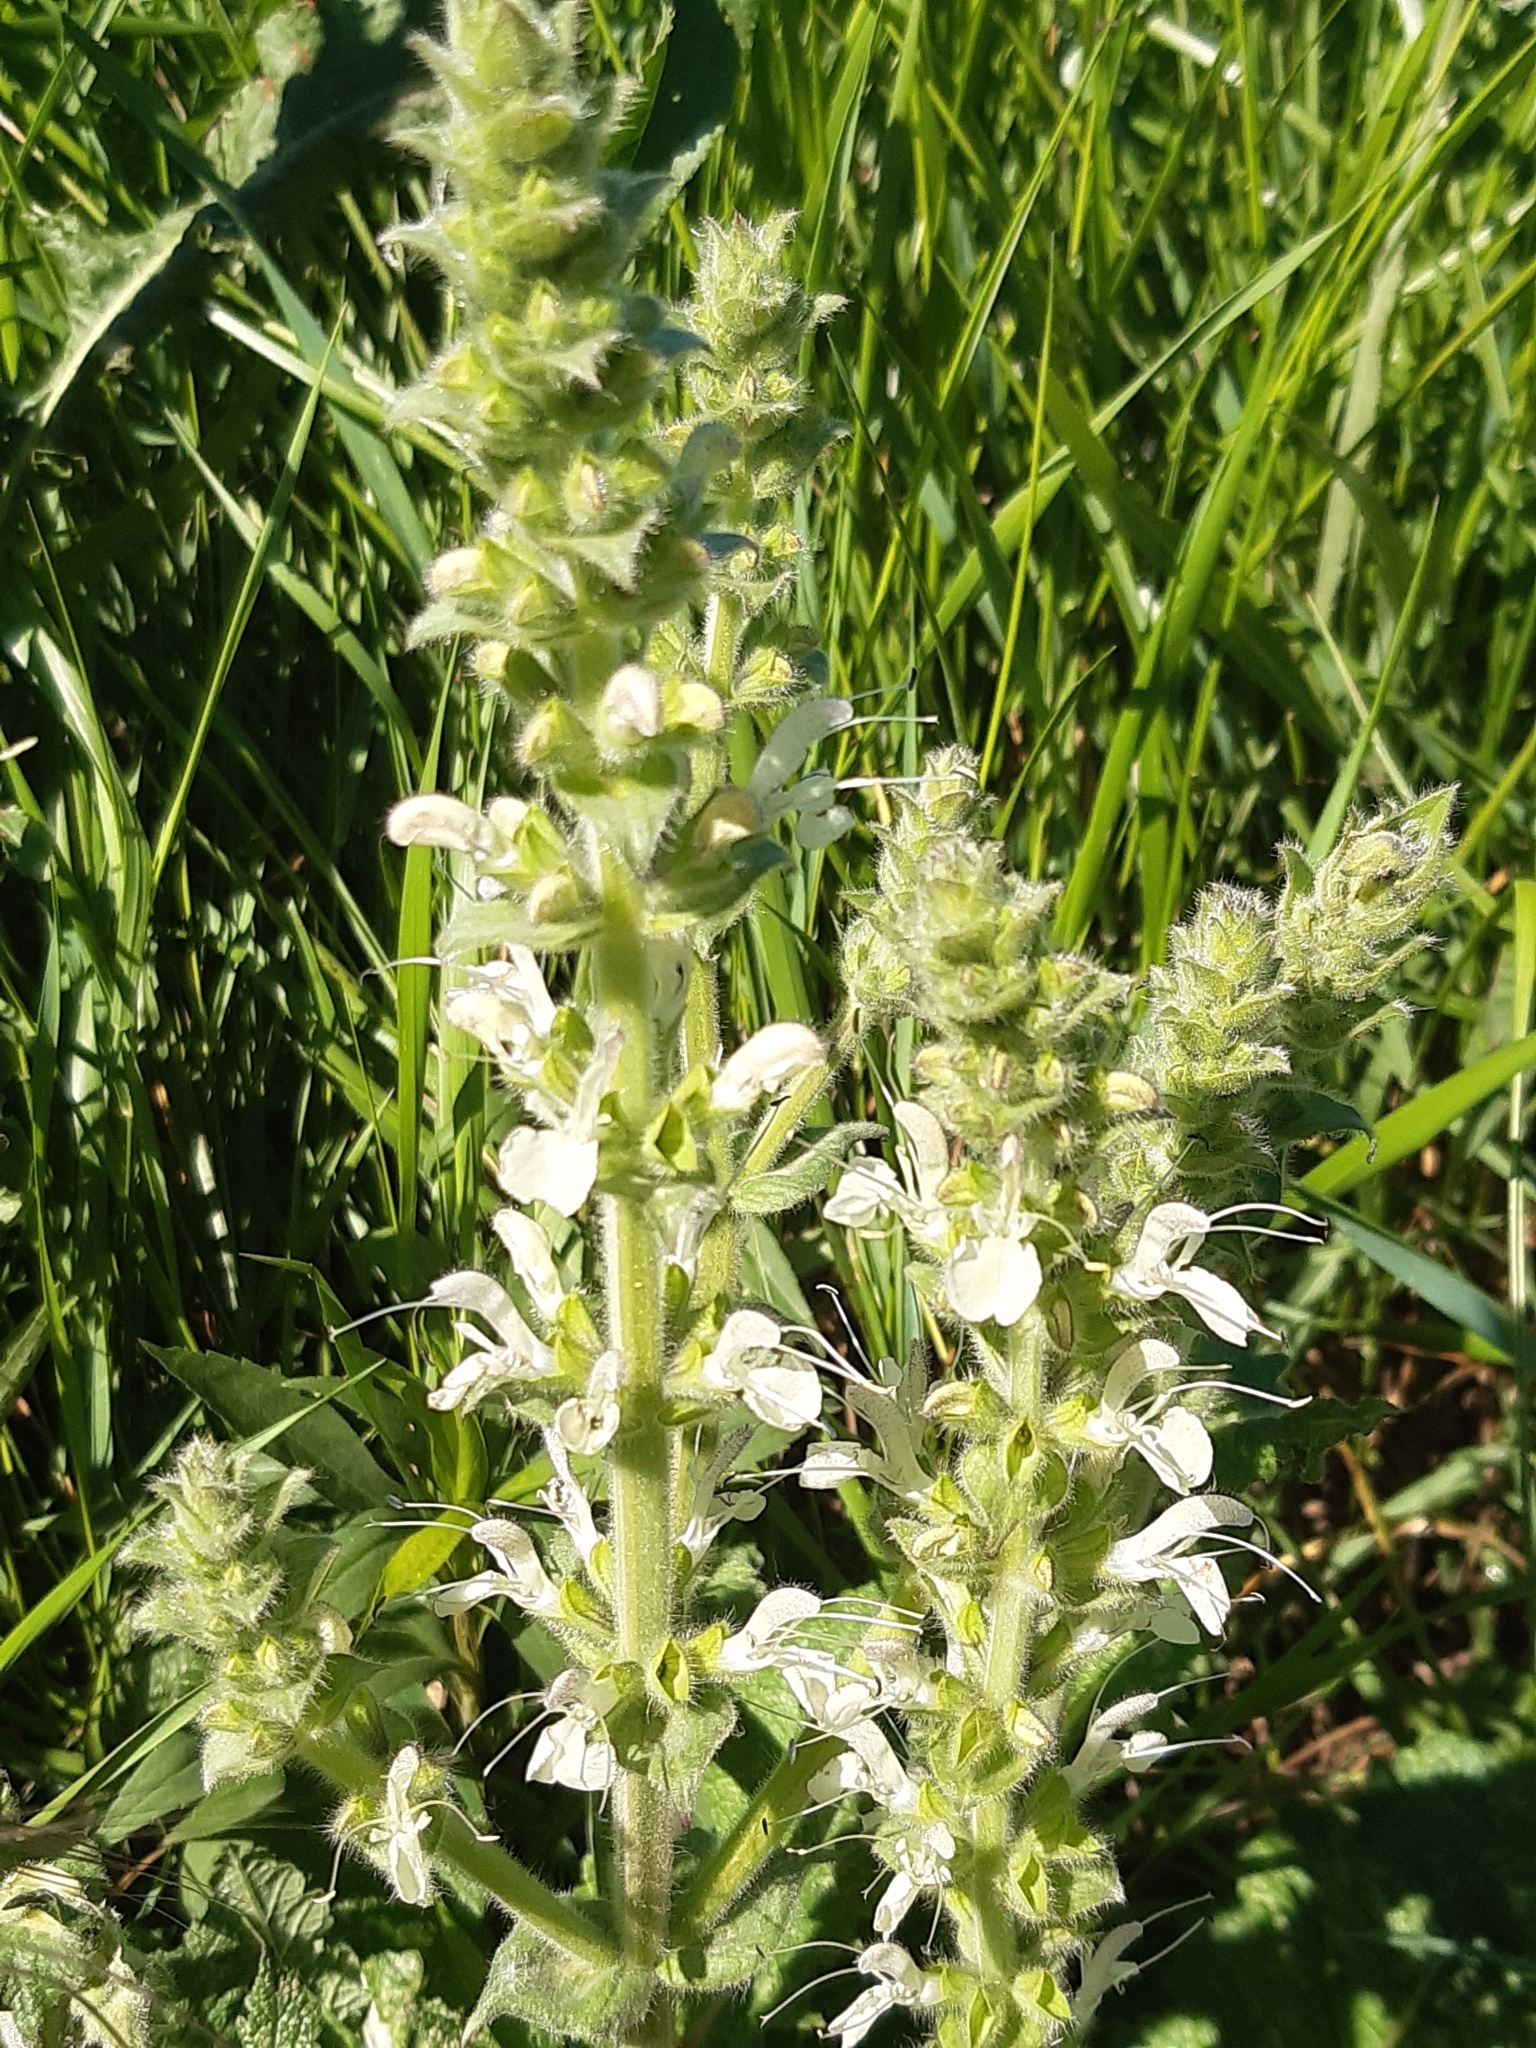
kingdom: Plantae
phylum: Tracheophyta
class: Magnoliopsida
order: Lamiales
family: Lamiaceae
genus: Salvia
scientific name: Salvia austriaca
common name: Austrian sage
